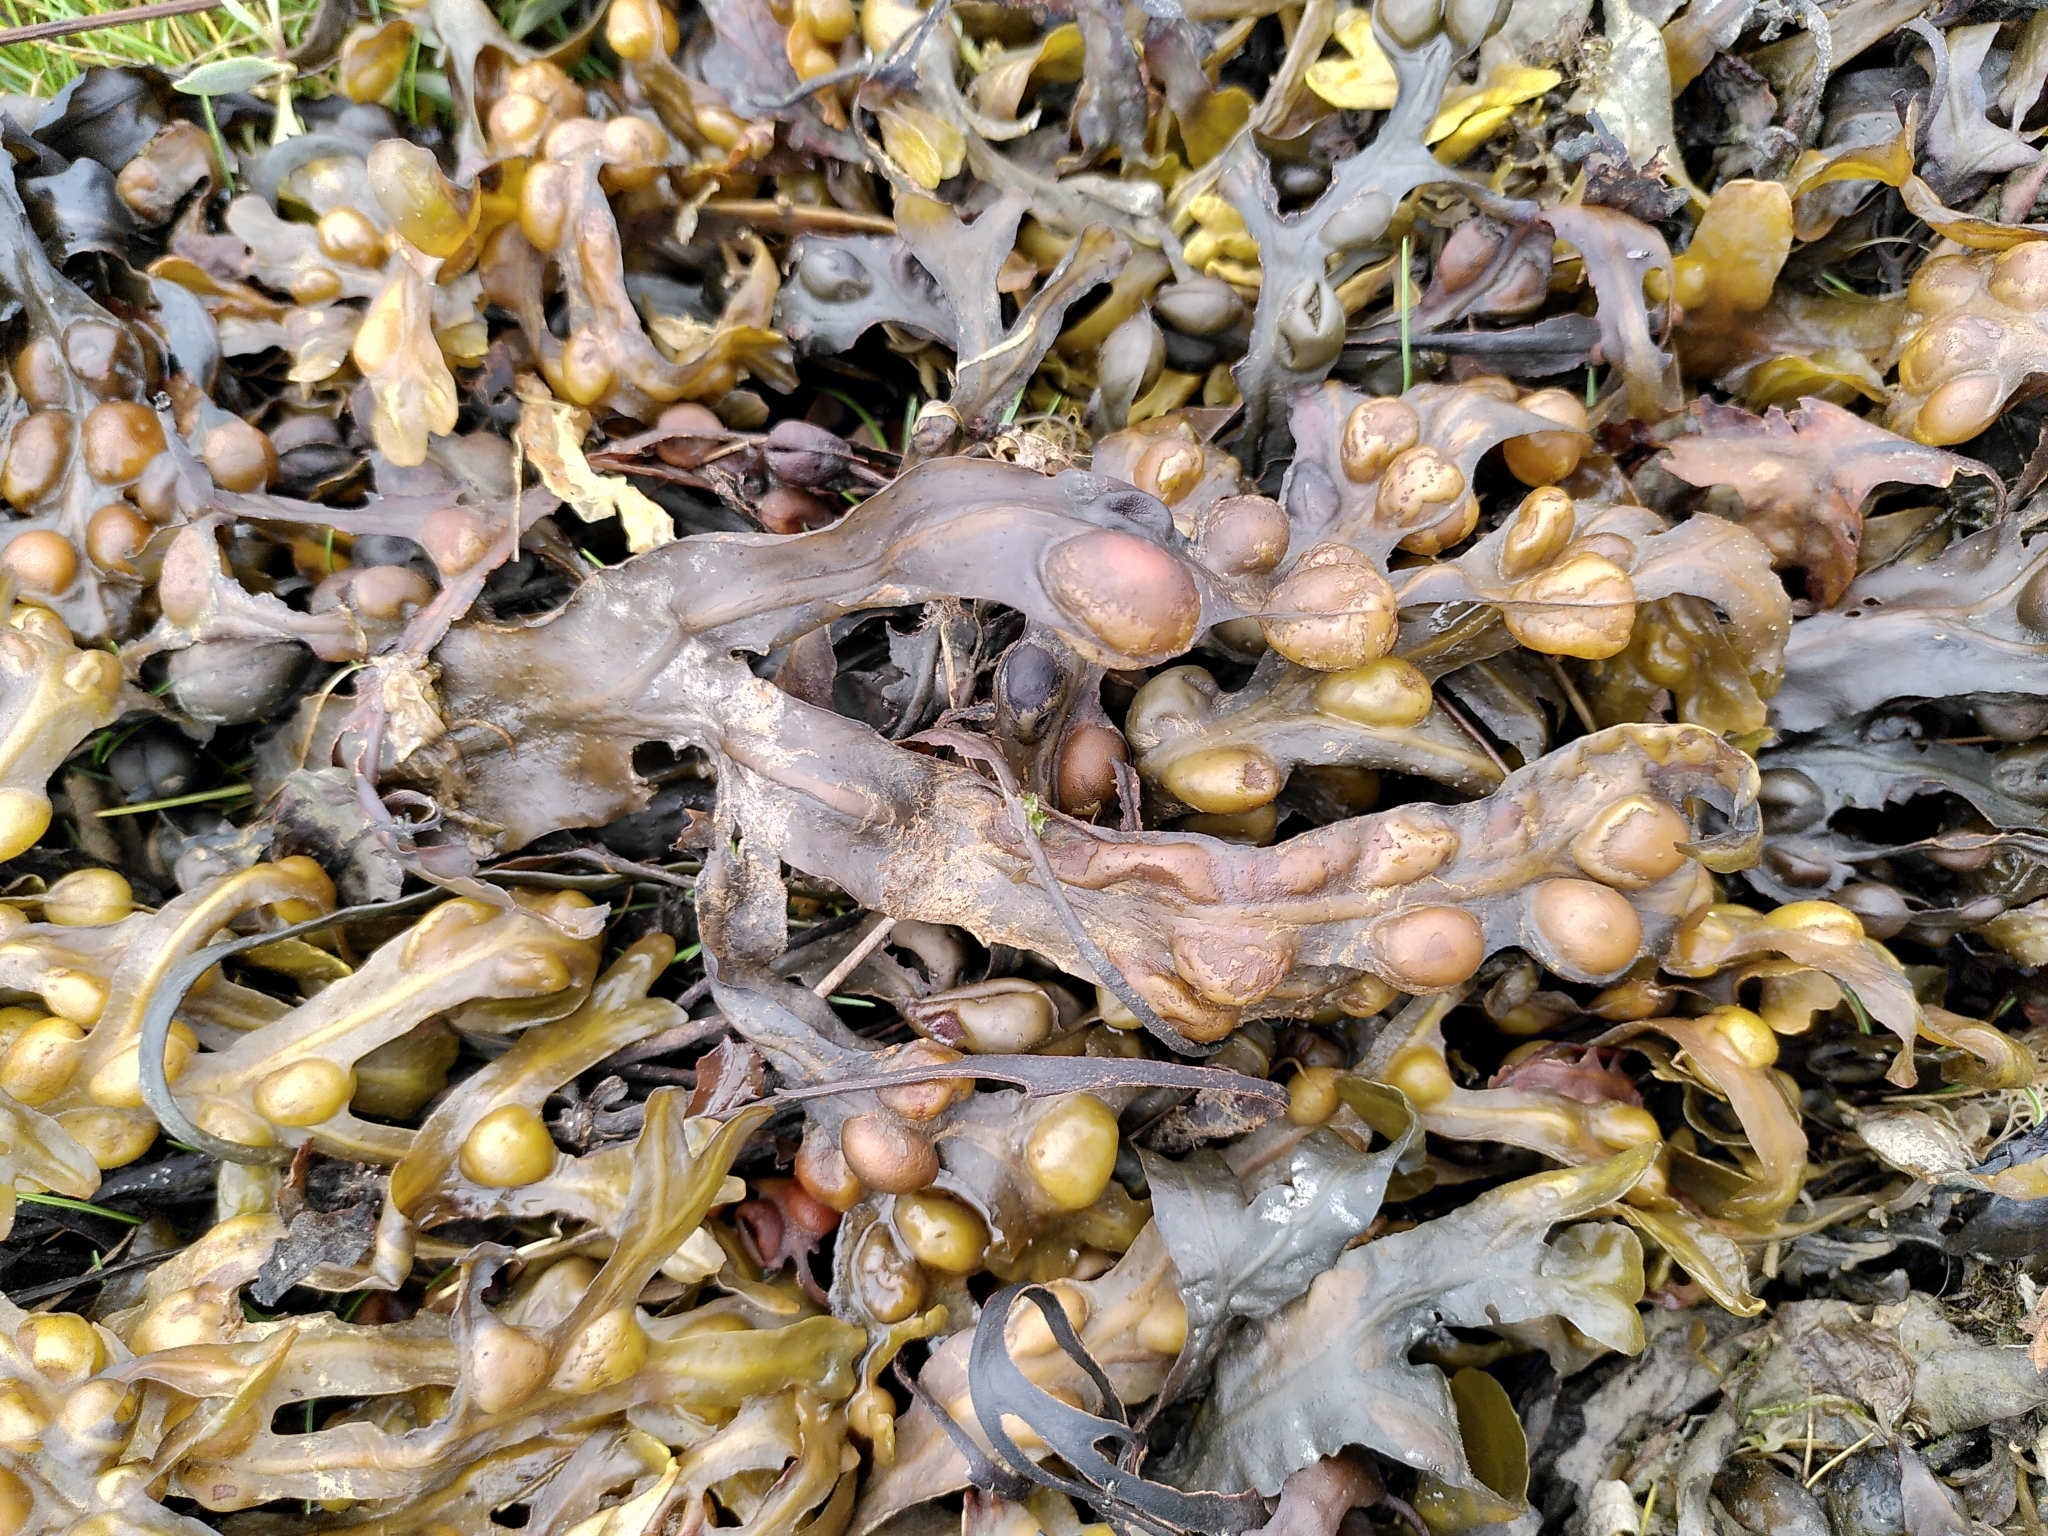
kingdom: Chromista
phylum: Ochrophyta
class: Phaeophyceae
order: Fucales
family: Fucaceae
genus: Fucus
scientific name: Fucus vesiculosus
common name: Bladder wrack
